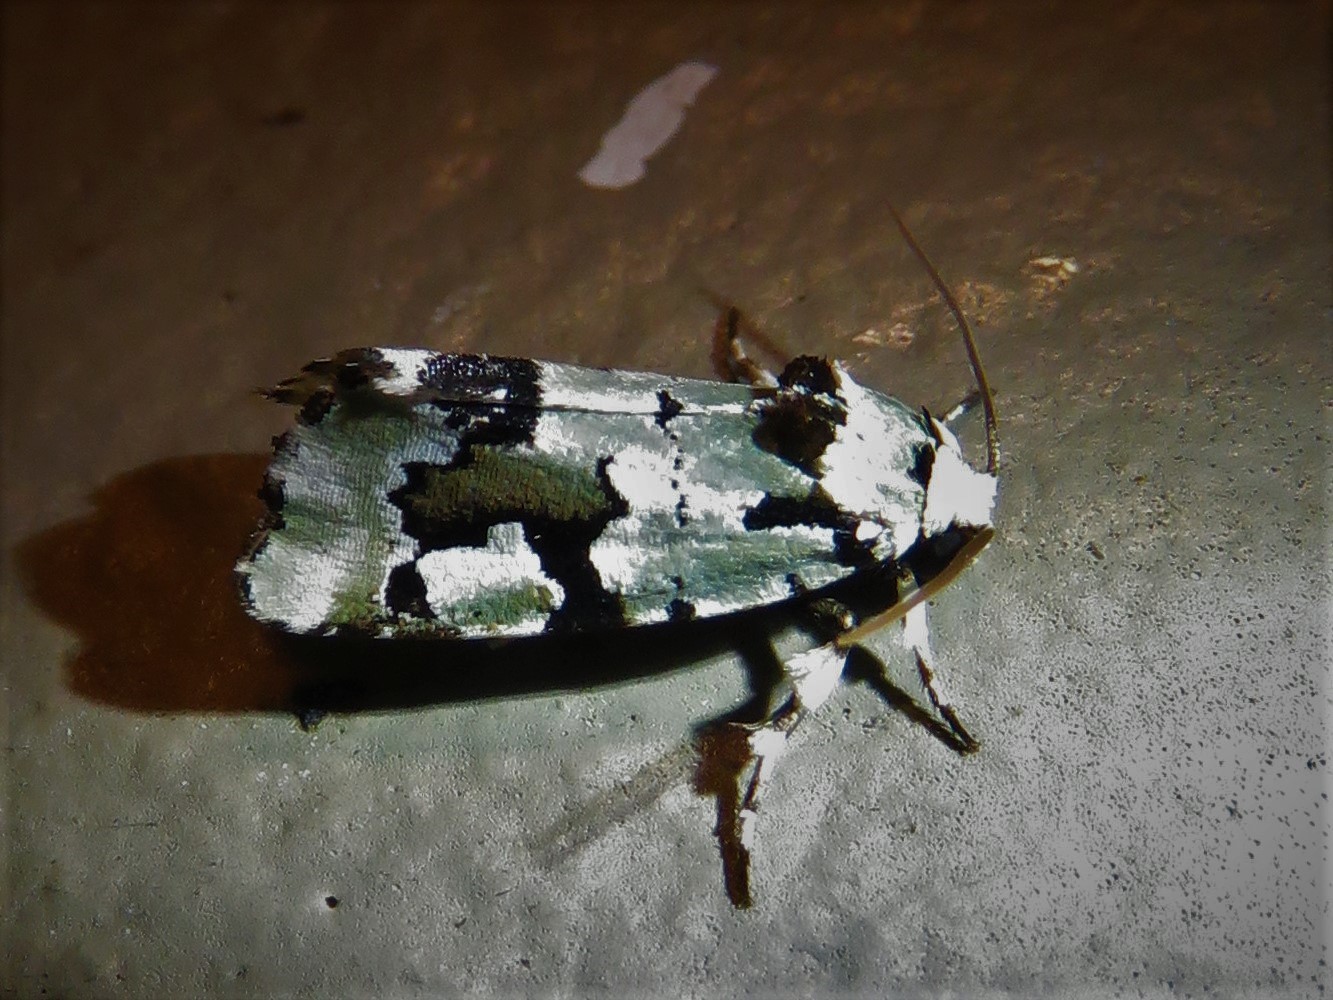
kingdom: Animalia
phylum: Arthropoda
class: Insecta
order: Lepidoptera
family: Noctuidae
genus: Emarginea
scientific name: Emarginea percara
